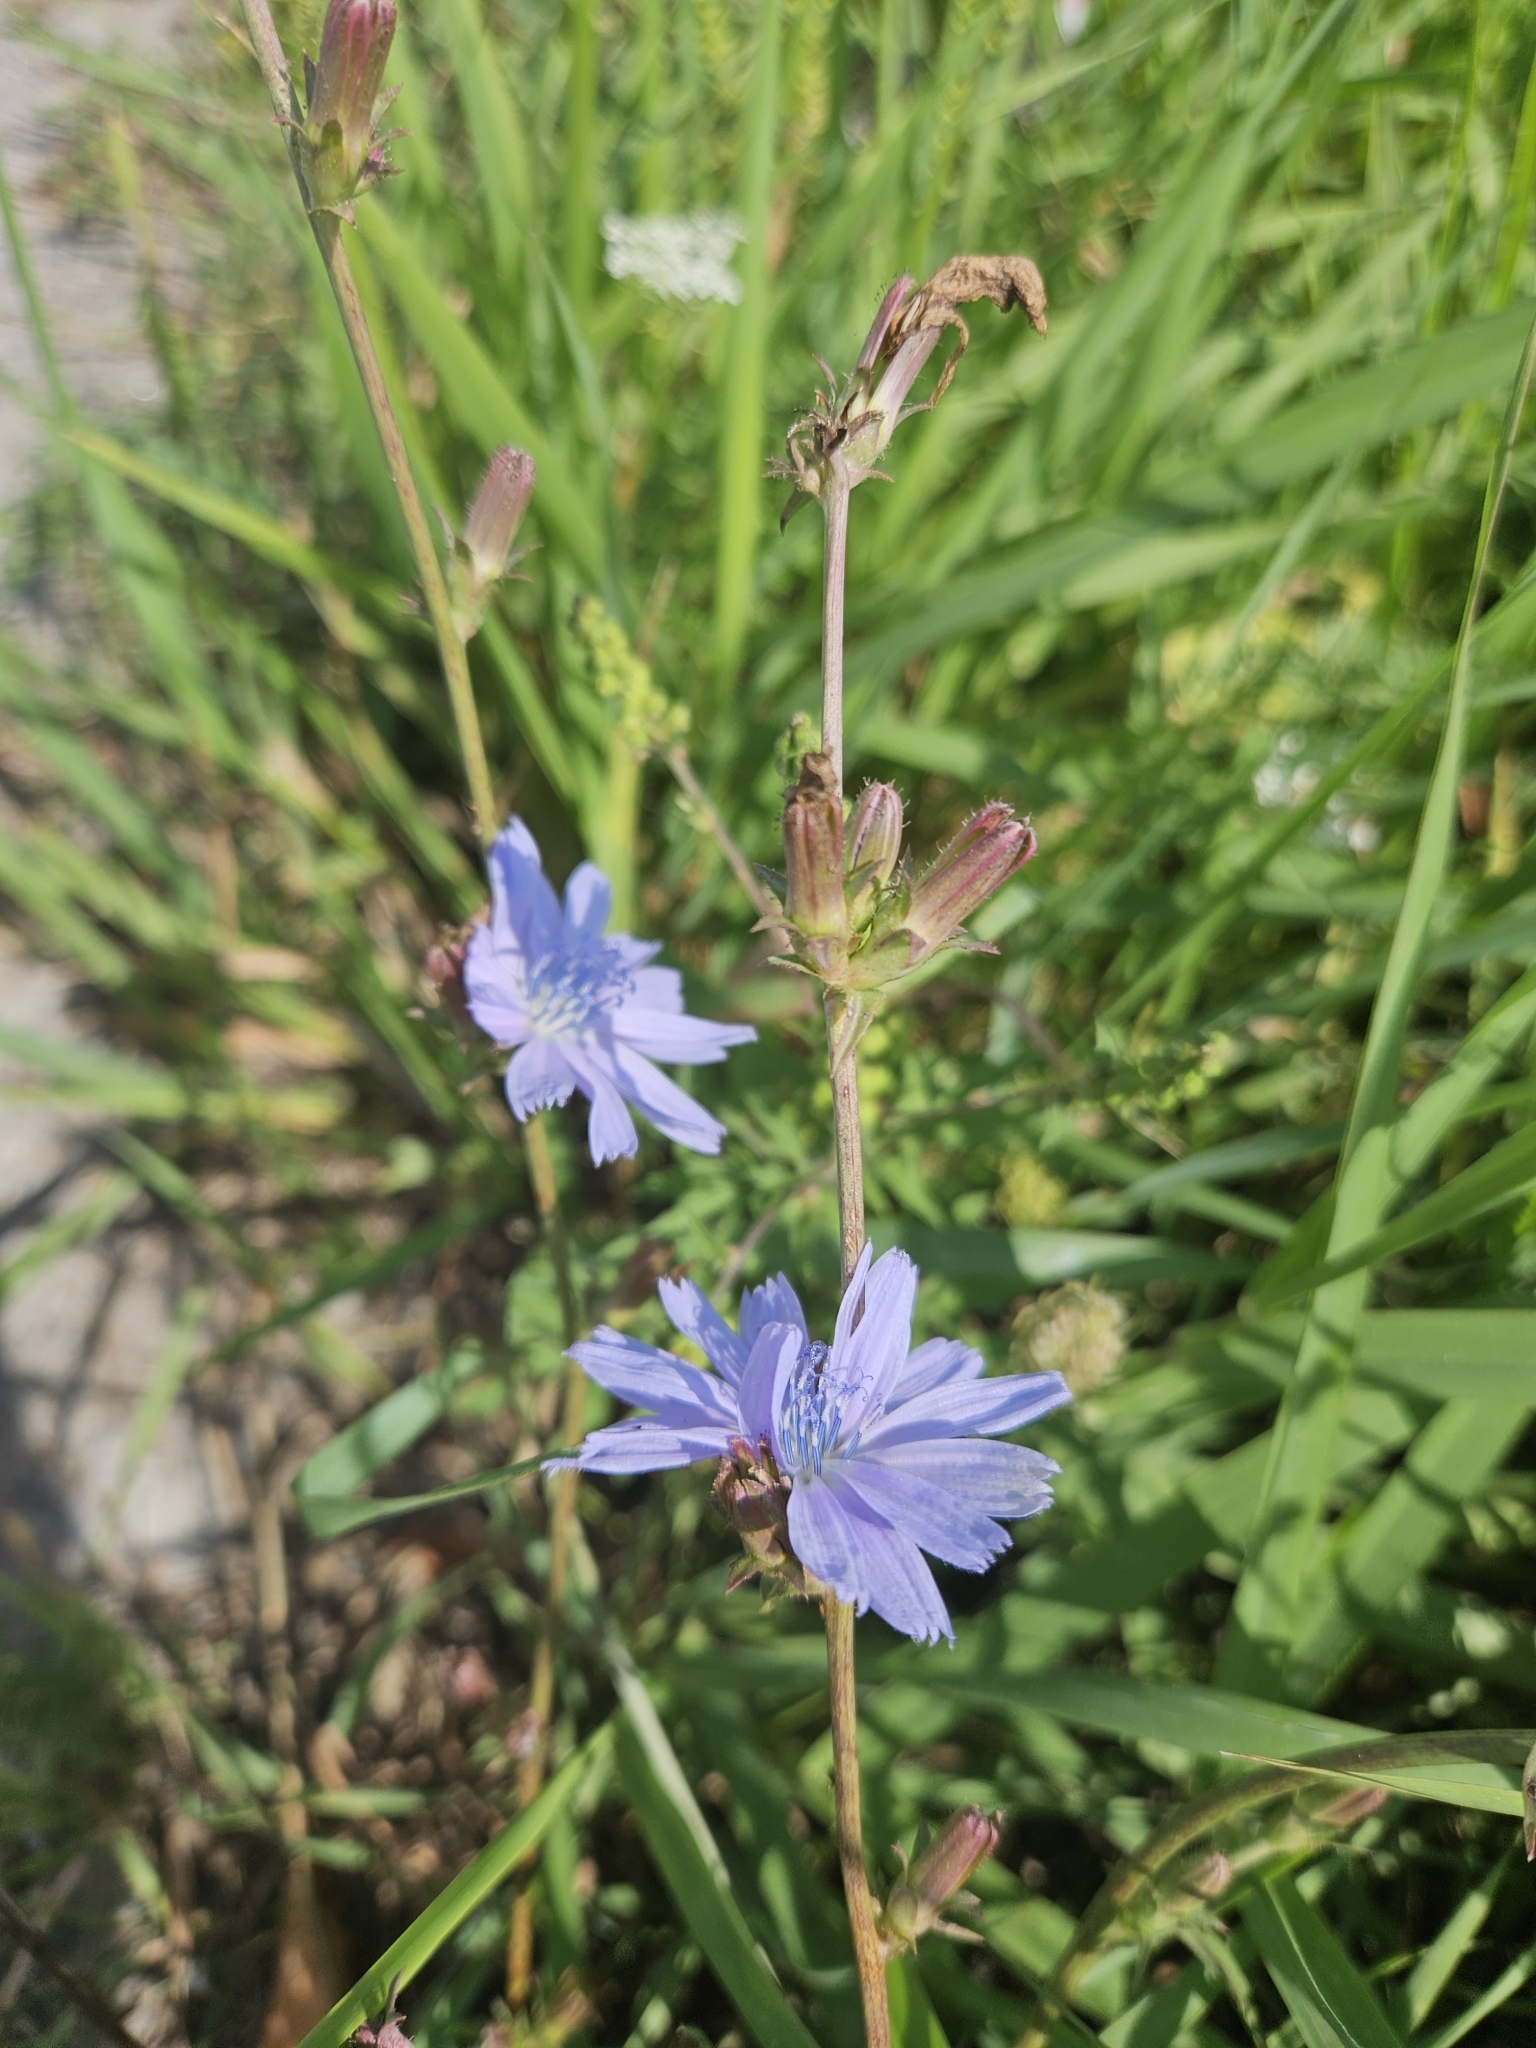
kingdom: Plantae
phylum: Tracheophyta
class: Magnoliopsida
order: Asterales
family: Asteraceae
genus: Cichorium
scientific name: Cichorium intybus
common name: Chicory
